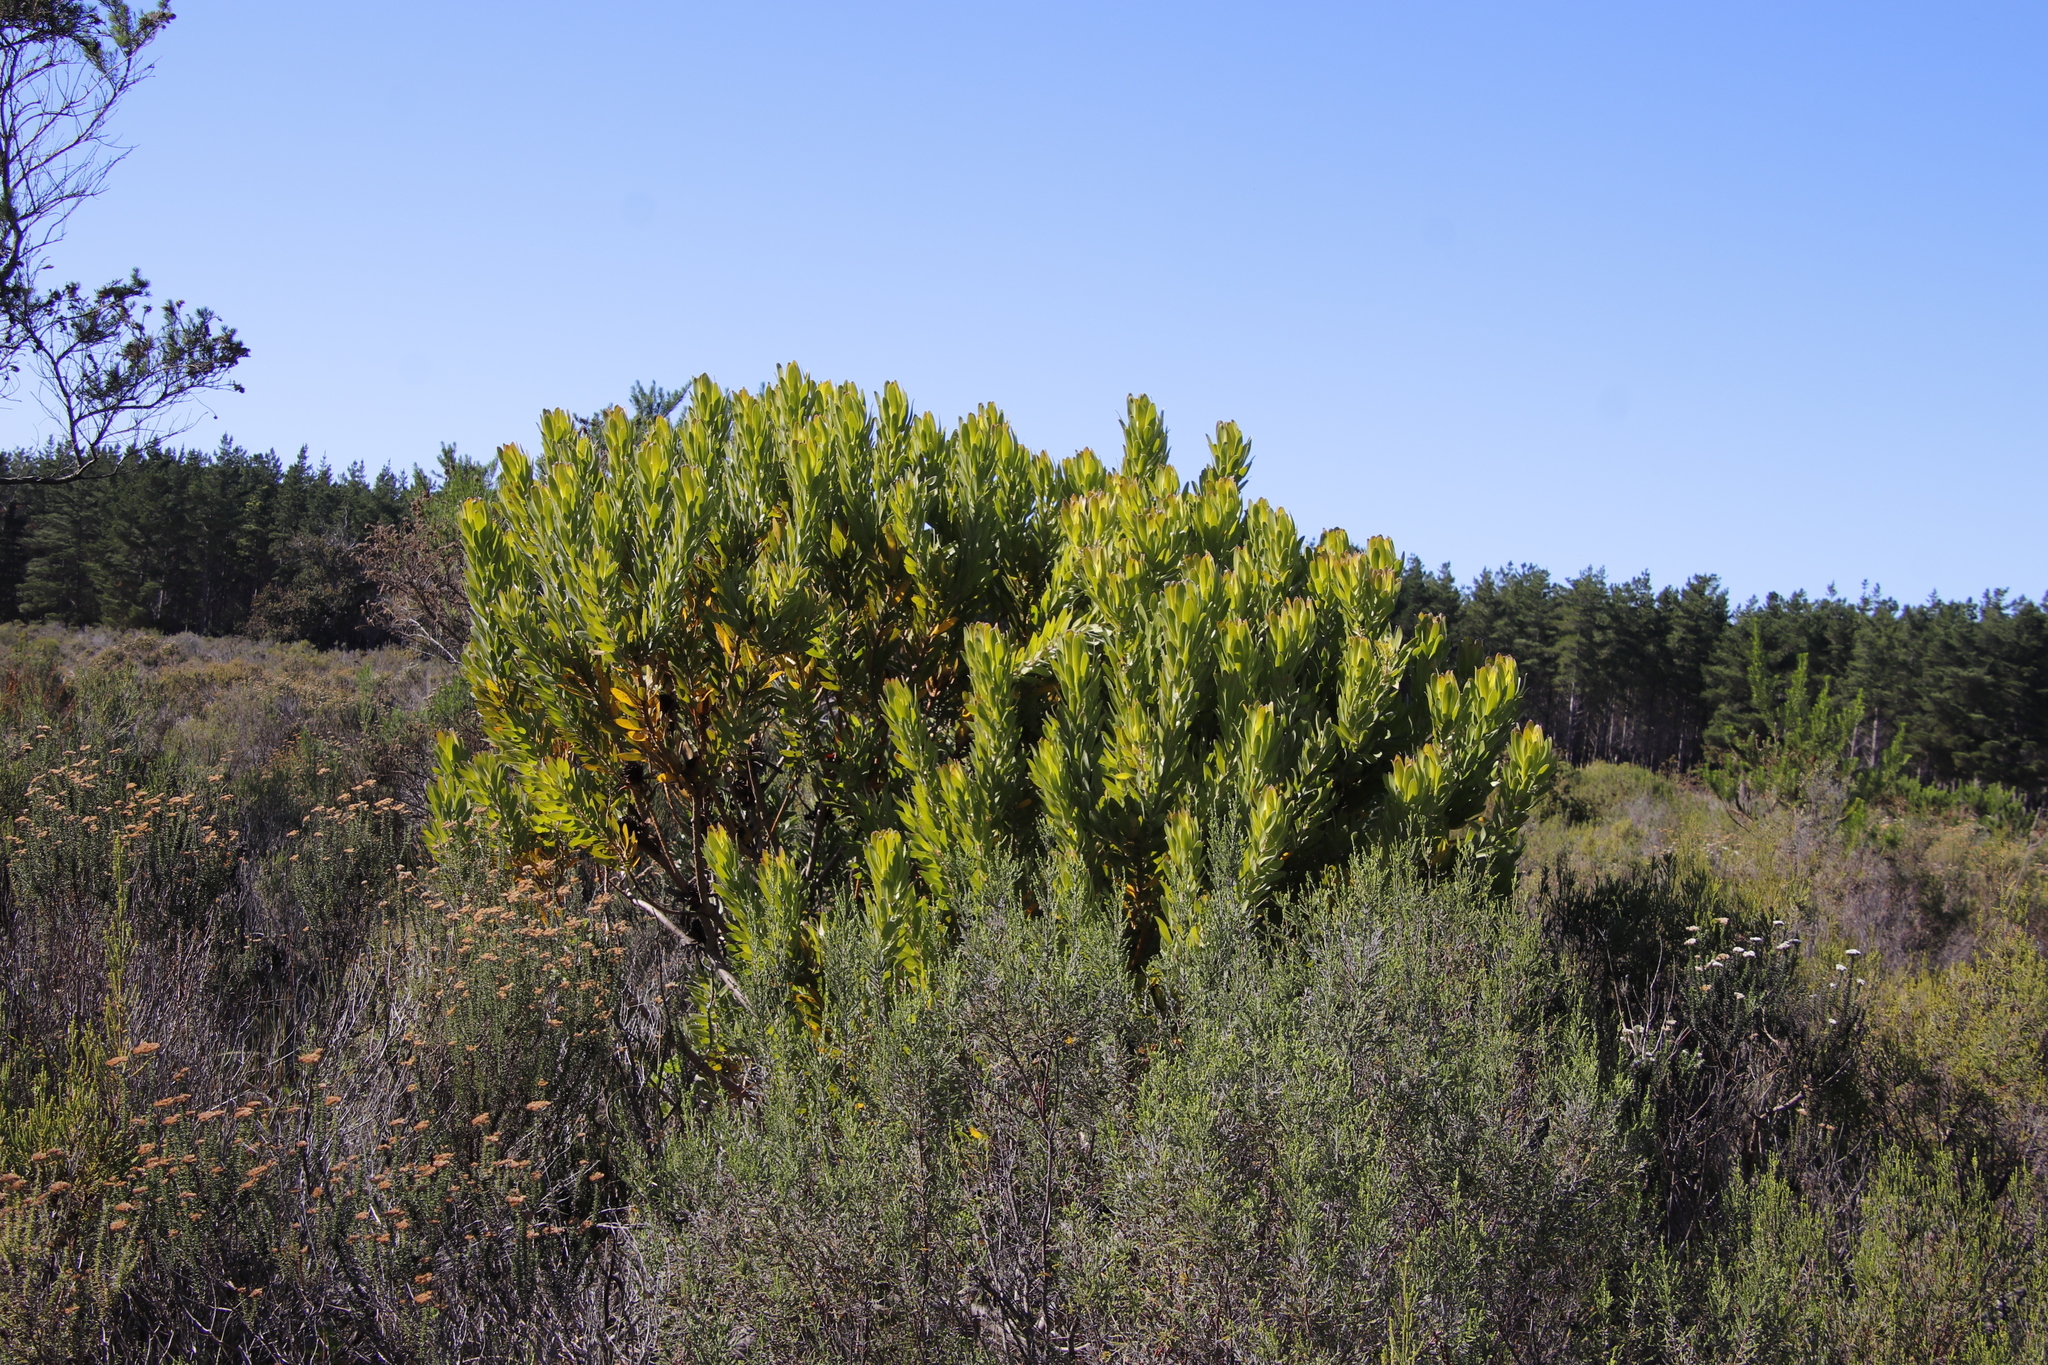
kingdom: Plantae
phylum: Tracheophyta
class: Magnoliopsida
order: Proteales
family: Proteaceae
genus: Leucadendron
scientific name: Leucadendron laureolum
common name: Golden sunshinebush
